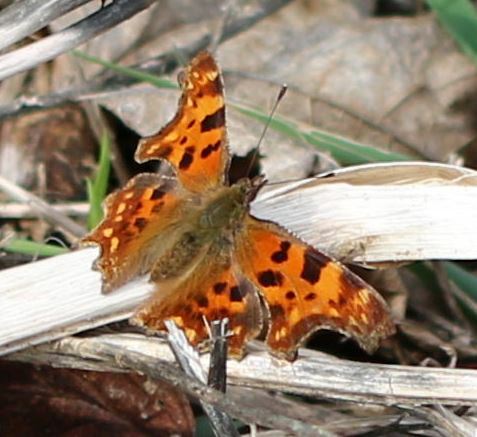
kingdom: Animalia
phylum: Arthropoda
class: Insecta
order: Lepidoptera
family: Nymphalidae
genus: Polygonia
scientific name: Polygonia c-album
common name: Comma
